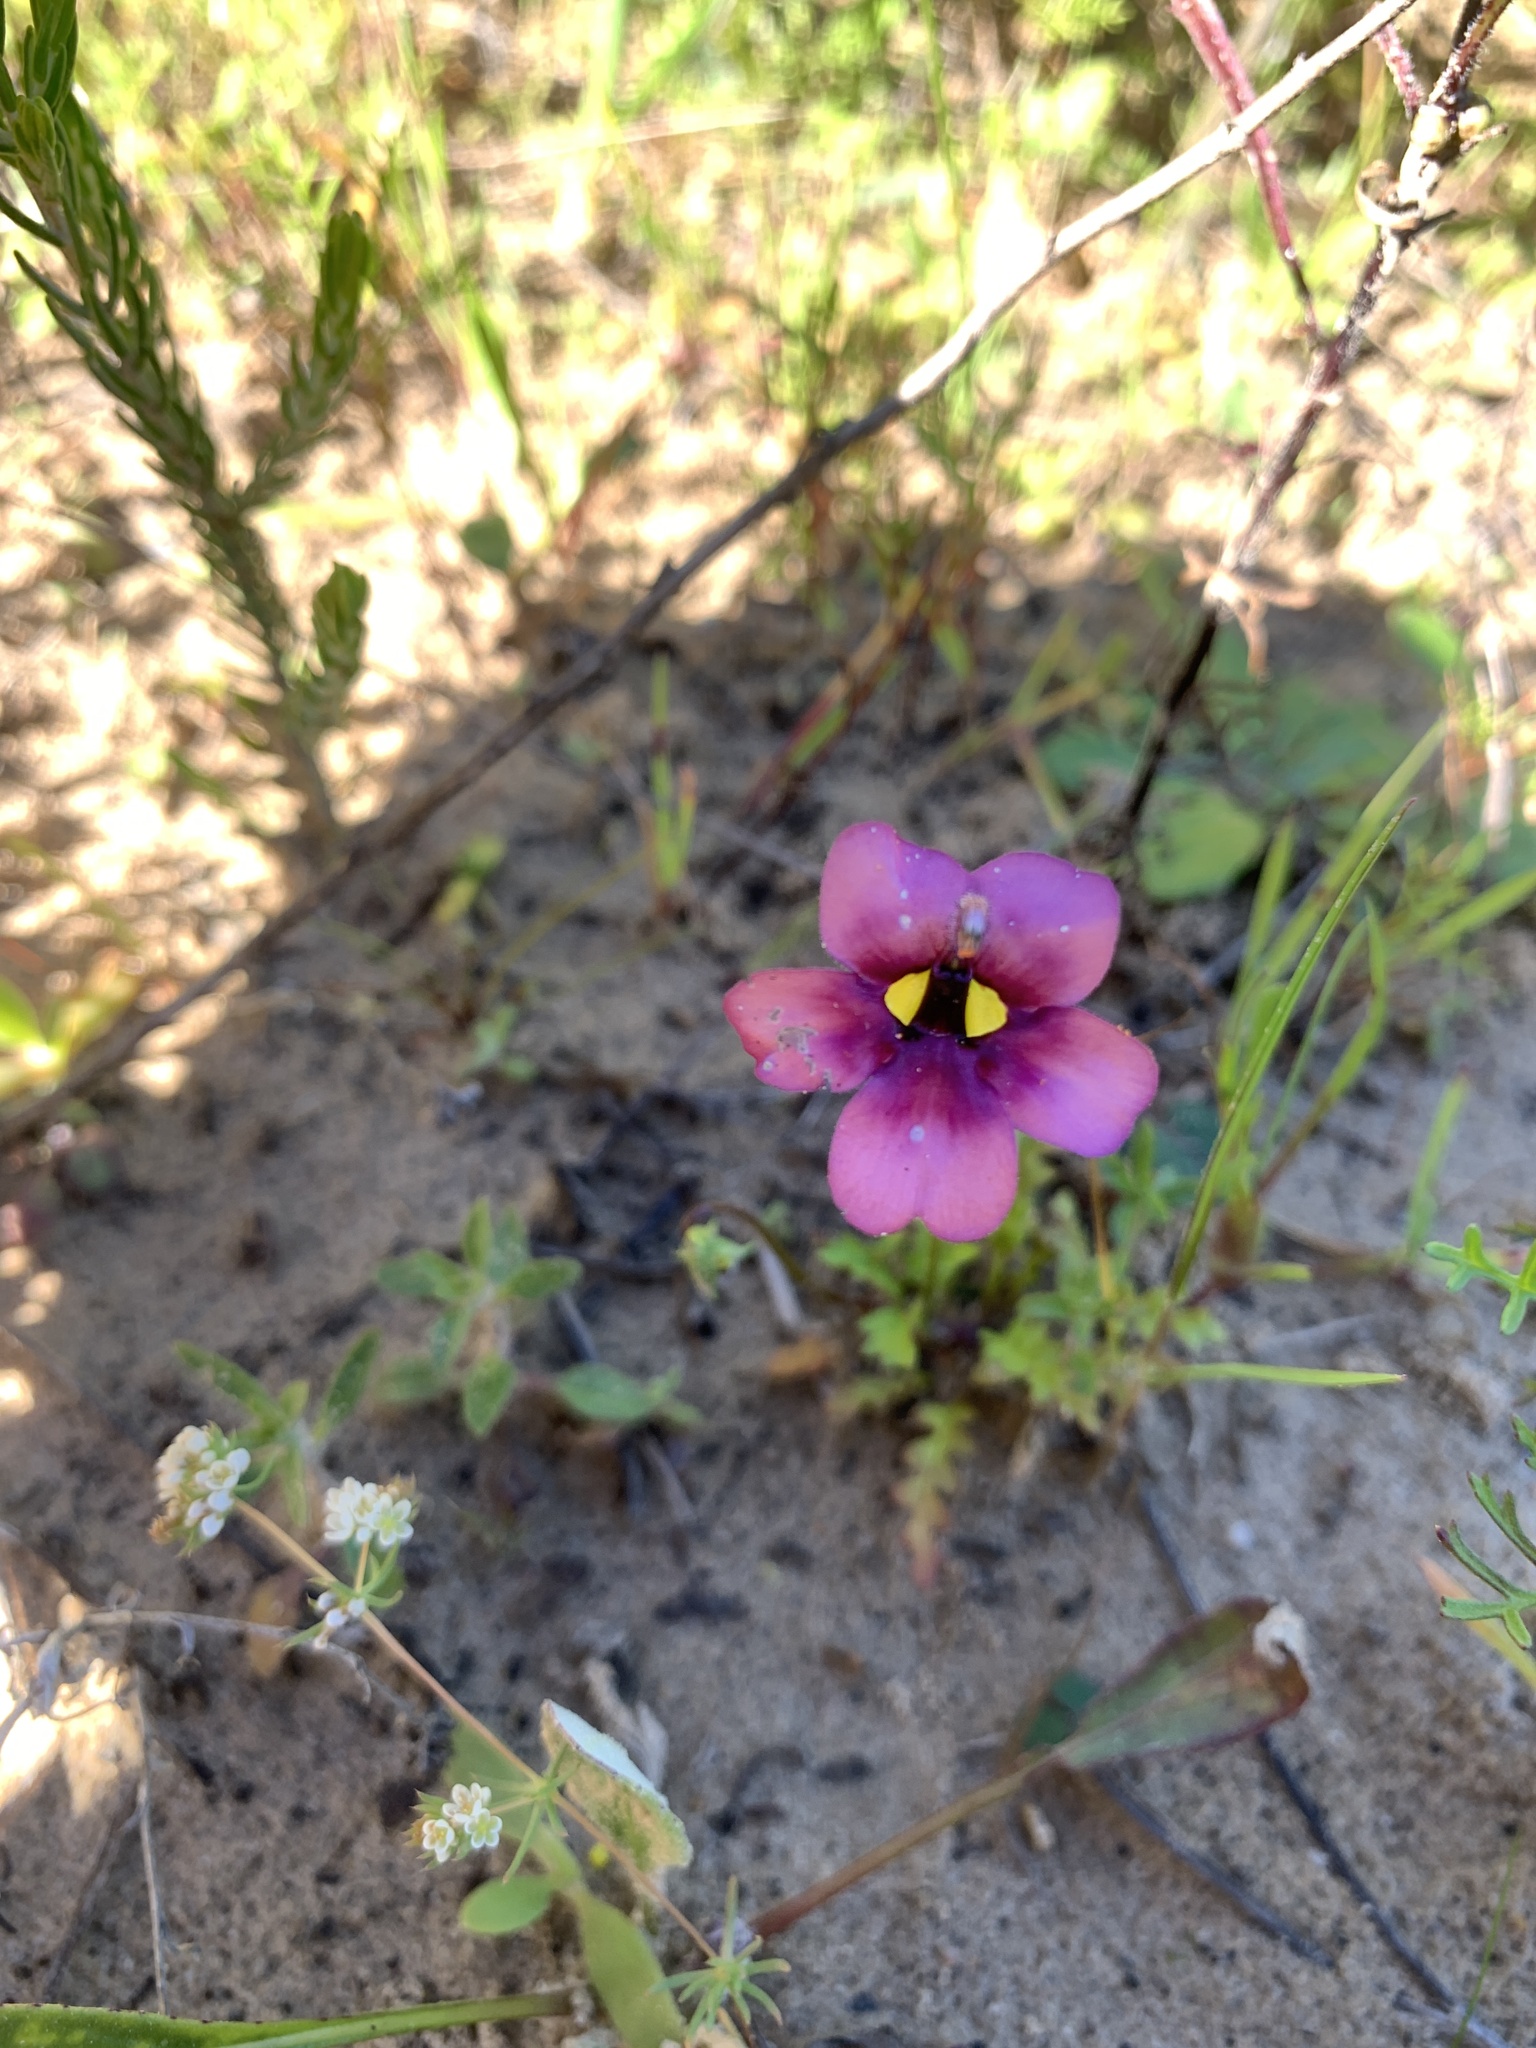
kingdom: Plantae
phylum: Tracheophyta
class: Magnoliopsida
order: Lamiales
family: Scrophulariaceae
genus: Diascia
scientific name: Diascia capensis
